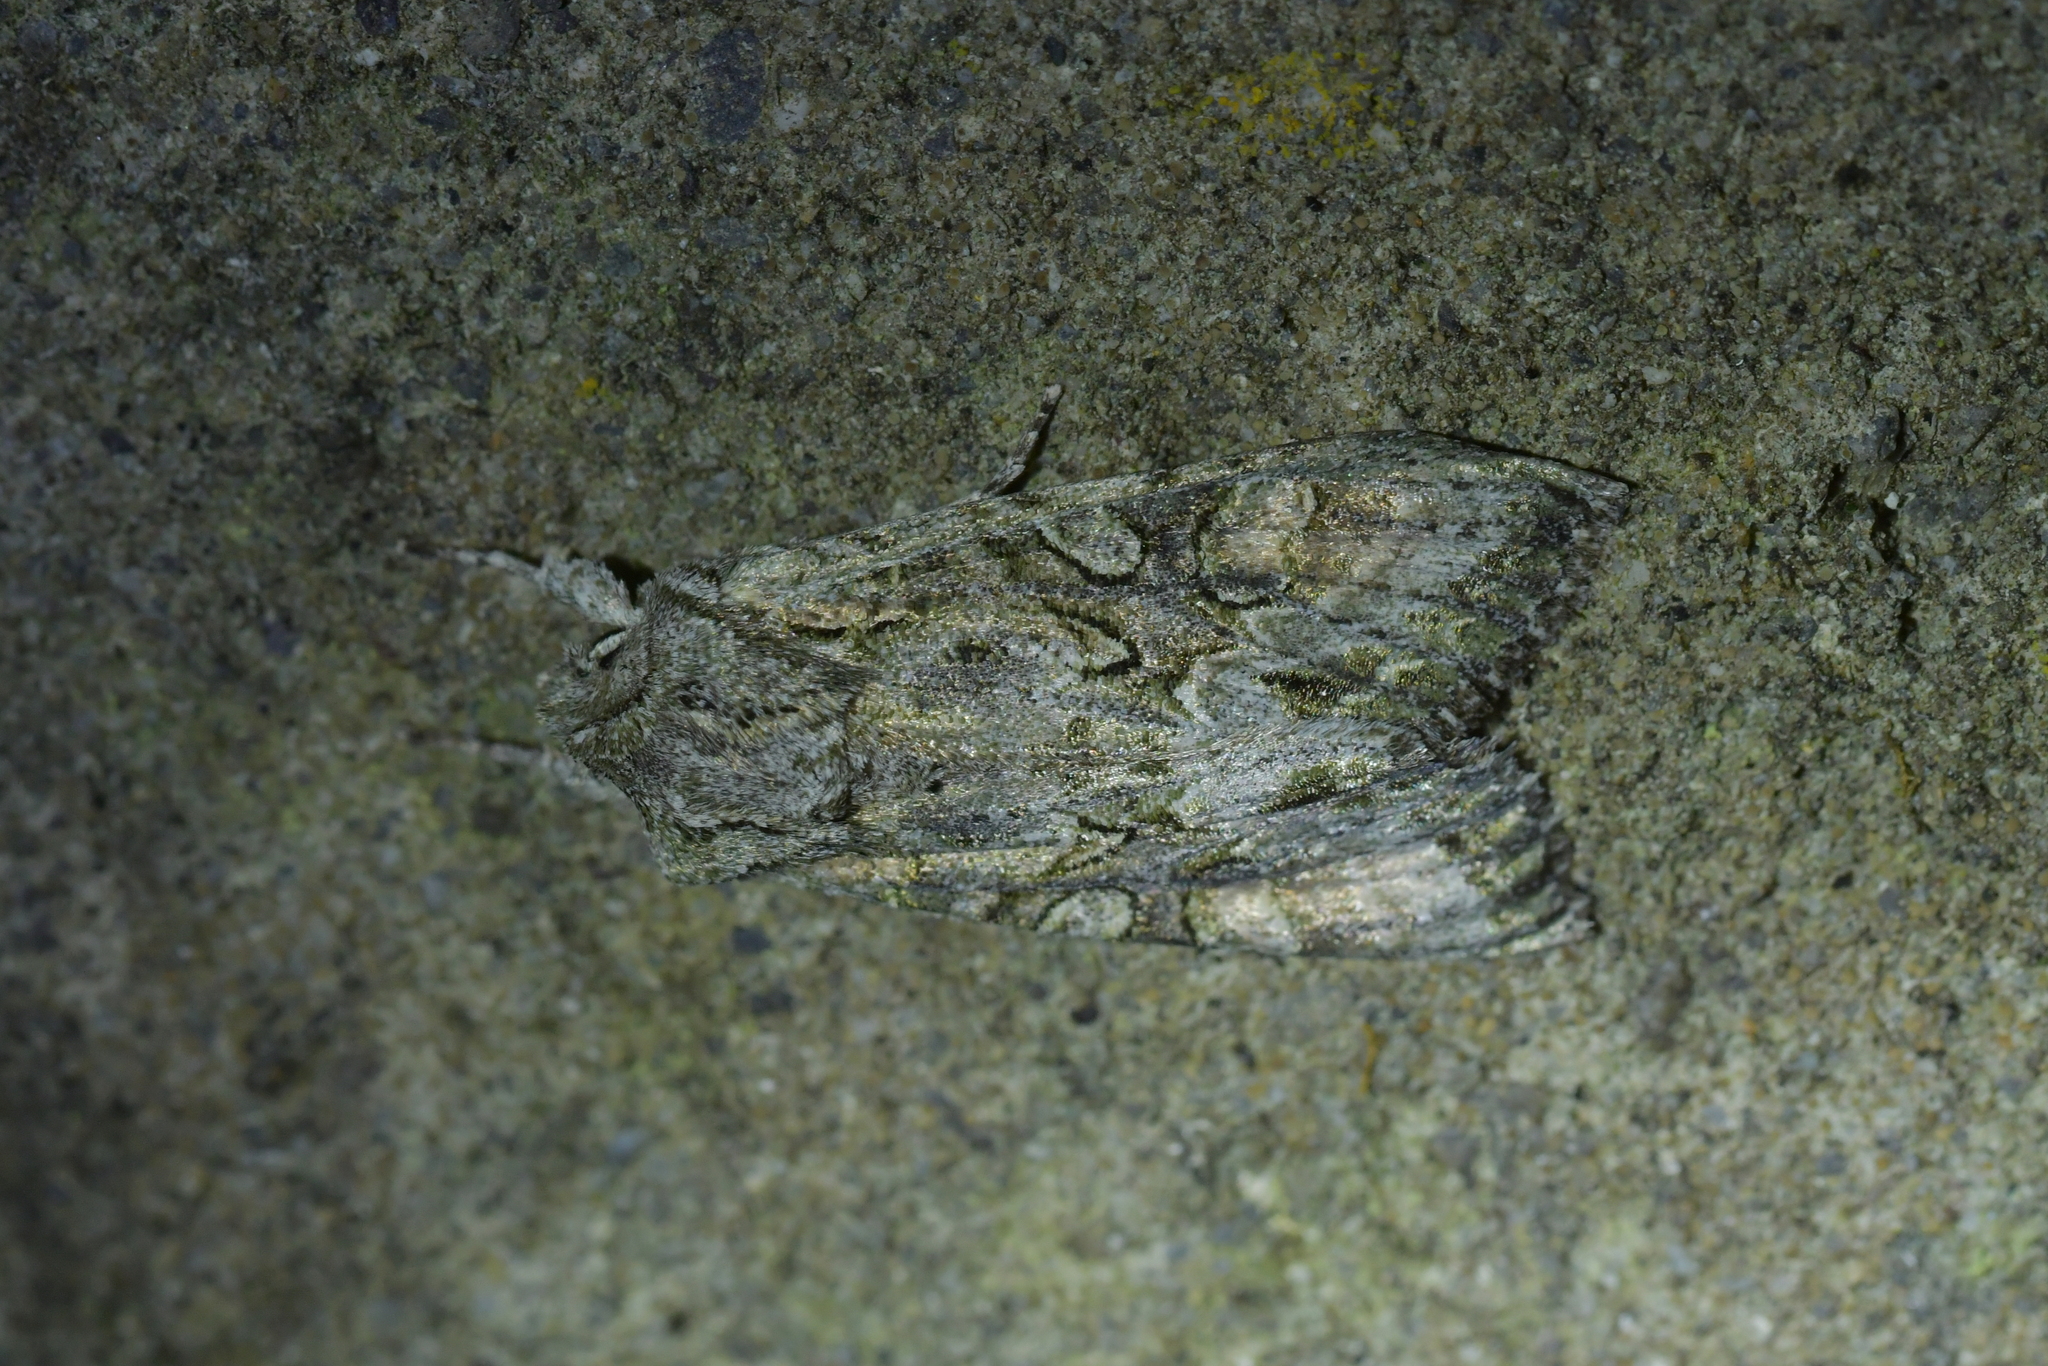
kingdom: Animalia
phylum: Arthropoda
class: Insecta
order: Lepidoptera
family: Noctuidae
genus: Ichneutica
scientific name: Ichneutica mutans
